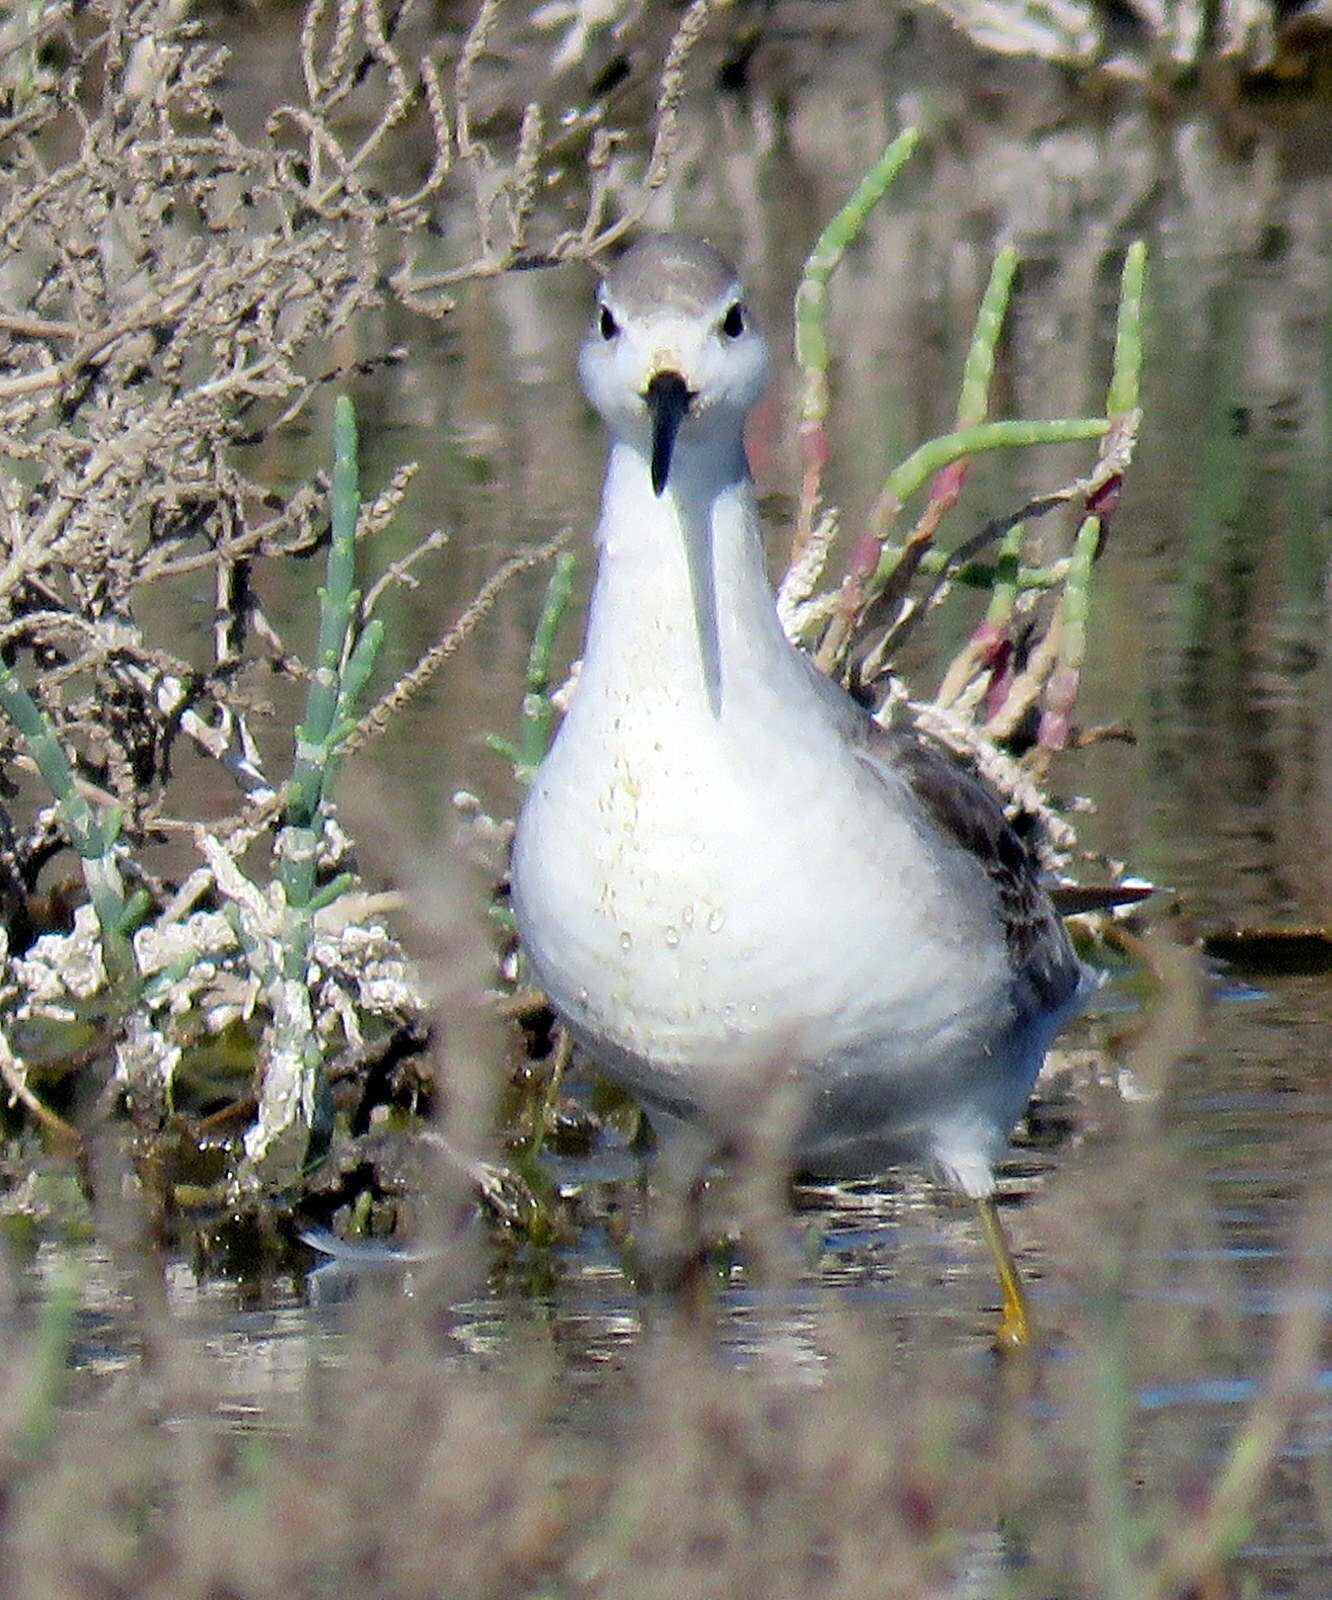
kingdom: Animalia
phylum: Chordata
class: Aves
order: Charadriiformes
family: Scolopacidae
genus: Phalaropus
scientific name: Phalaropus tricolor
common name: Wilson's phalarope
